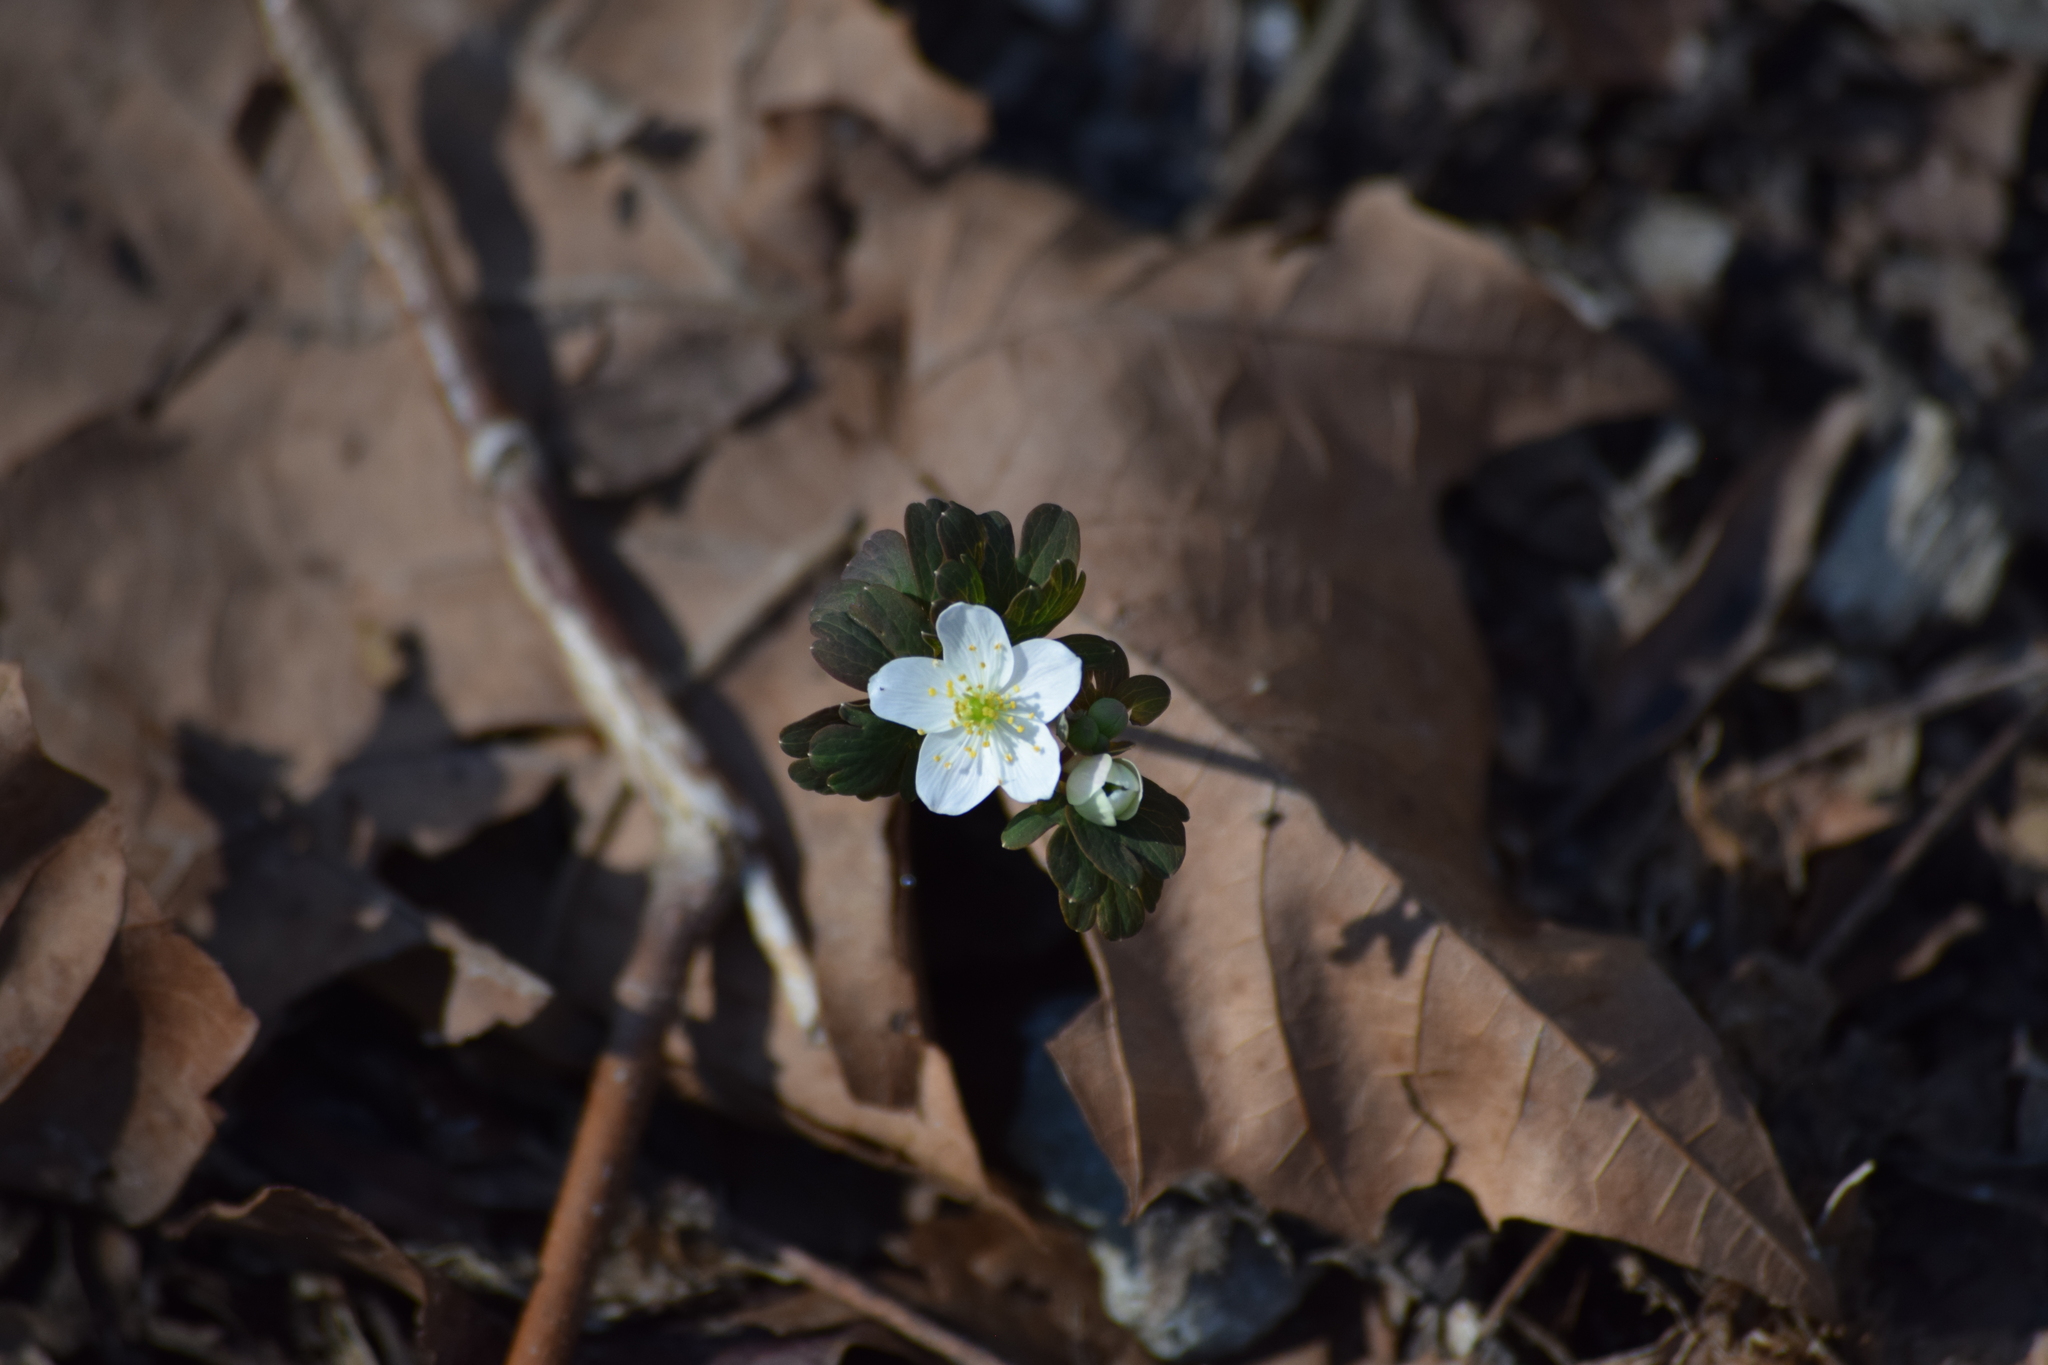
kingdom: Plantae
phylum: Tracheophyta
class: Magnoliopsida
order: Ranunculales
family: Ranunculaceae
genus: Thalictrum
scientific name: Thalictrum thalictroides
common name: Rue-anemone
